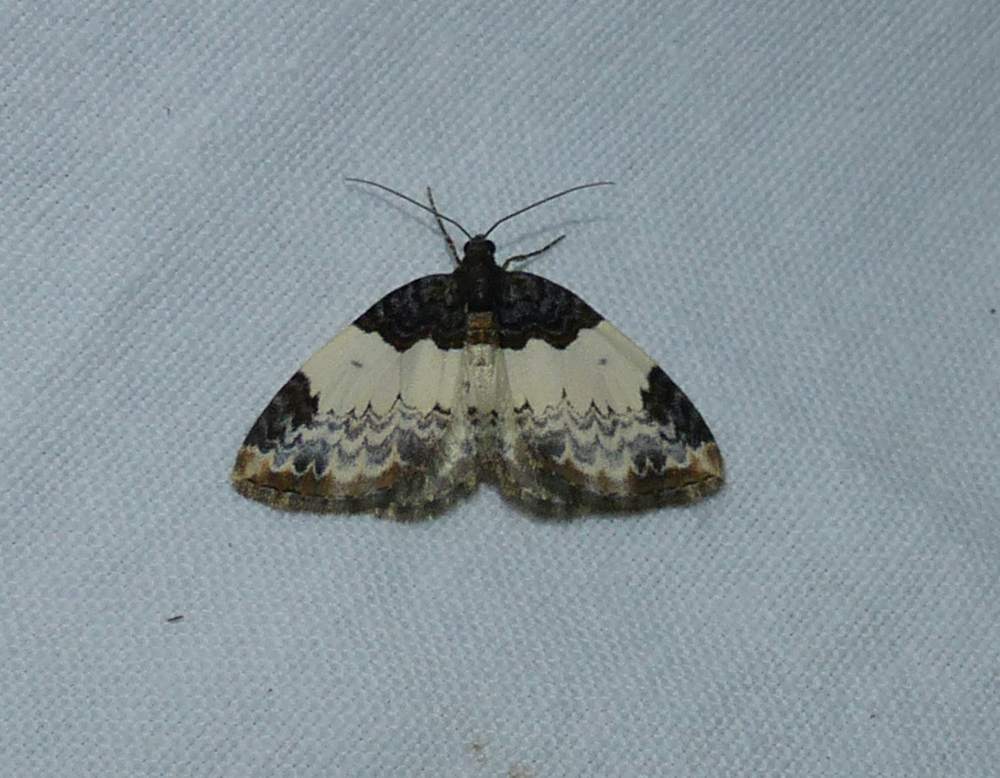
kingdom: Animalia
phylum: Arthropoda
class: Insecta
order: Lepidoptera
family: Geometridae
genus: Mesoleuca
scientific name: Mesoleuca ruficillata
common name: White-ribboned carpet moth
